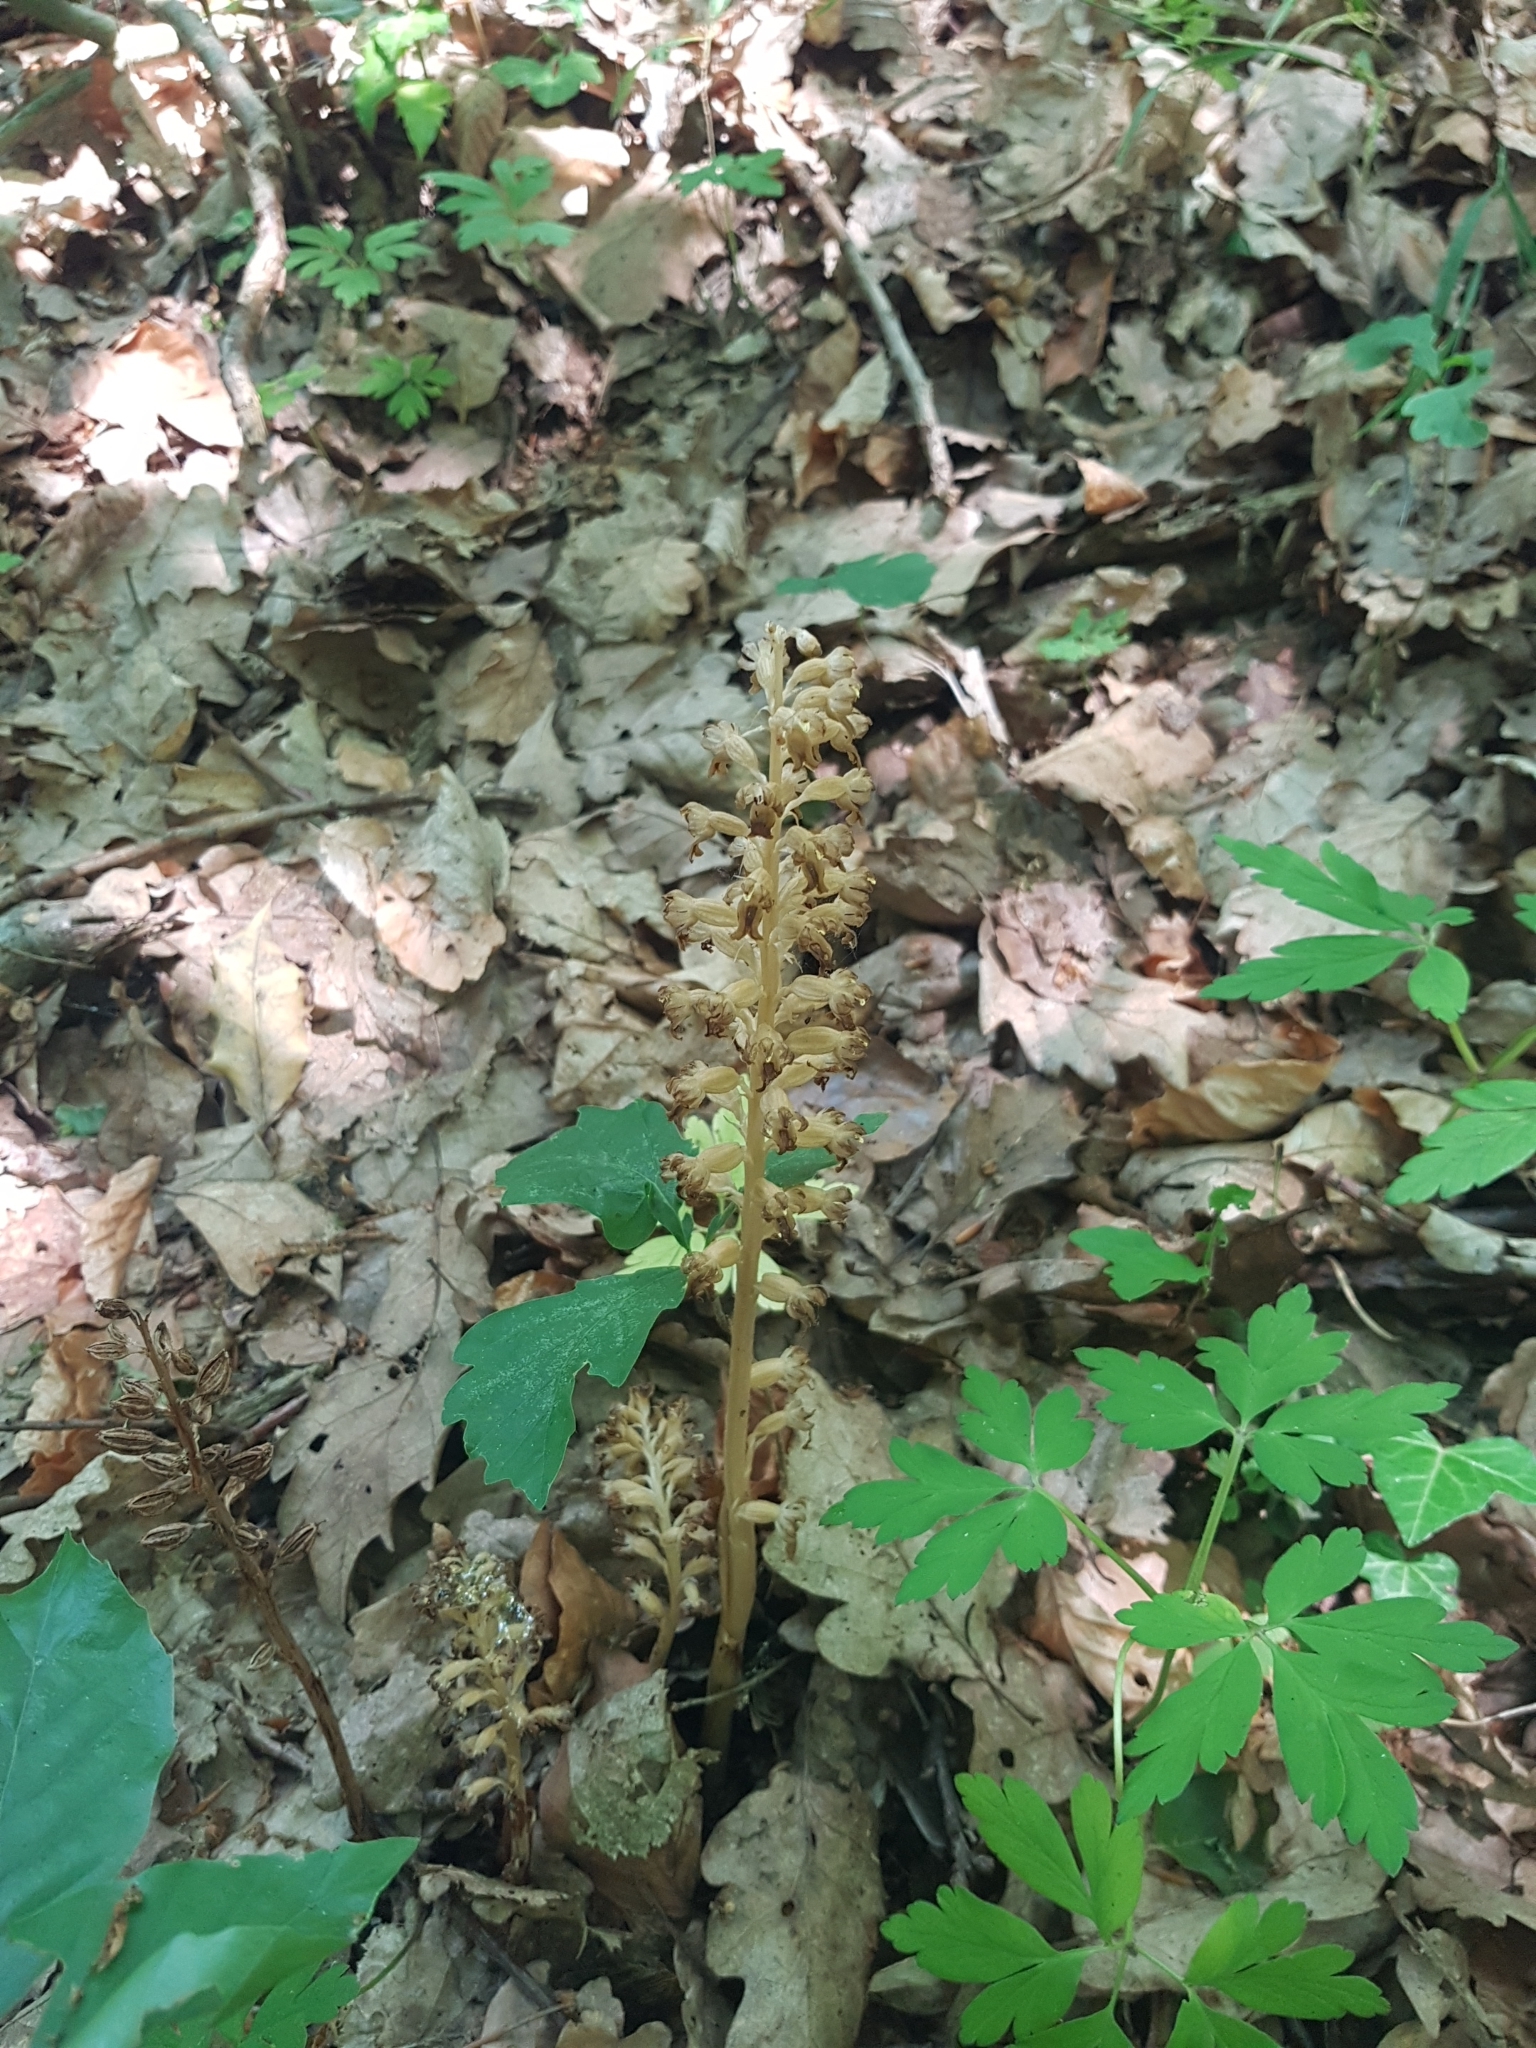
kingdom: Plantae
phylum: Tracheophyta
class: Liliopsida
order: Asparagales
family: Orchidaceae
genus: Neottia
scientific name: Neottia nidus-avis
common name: Bird's-nest orchid
